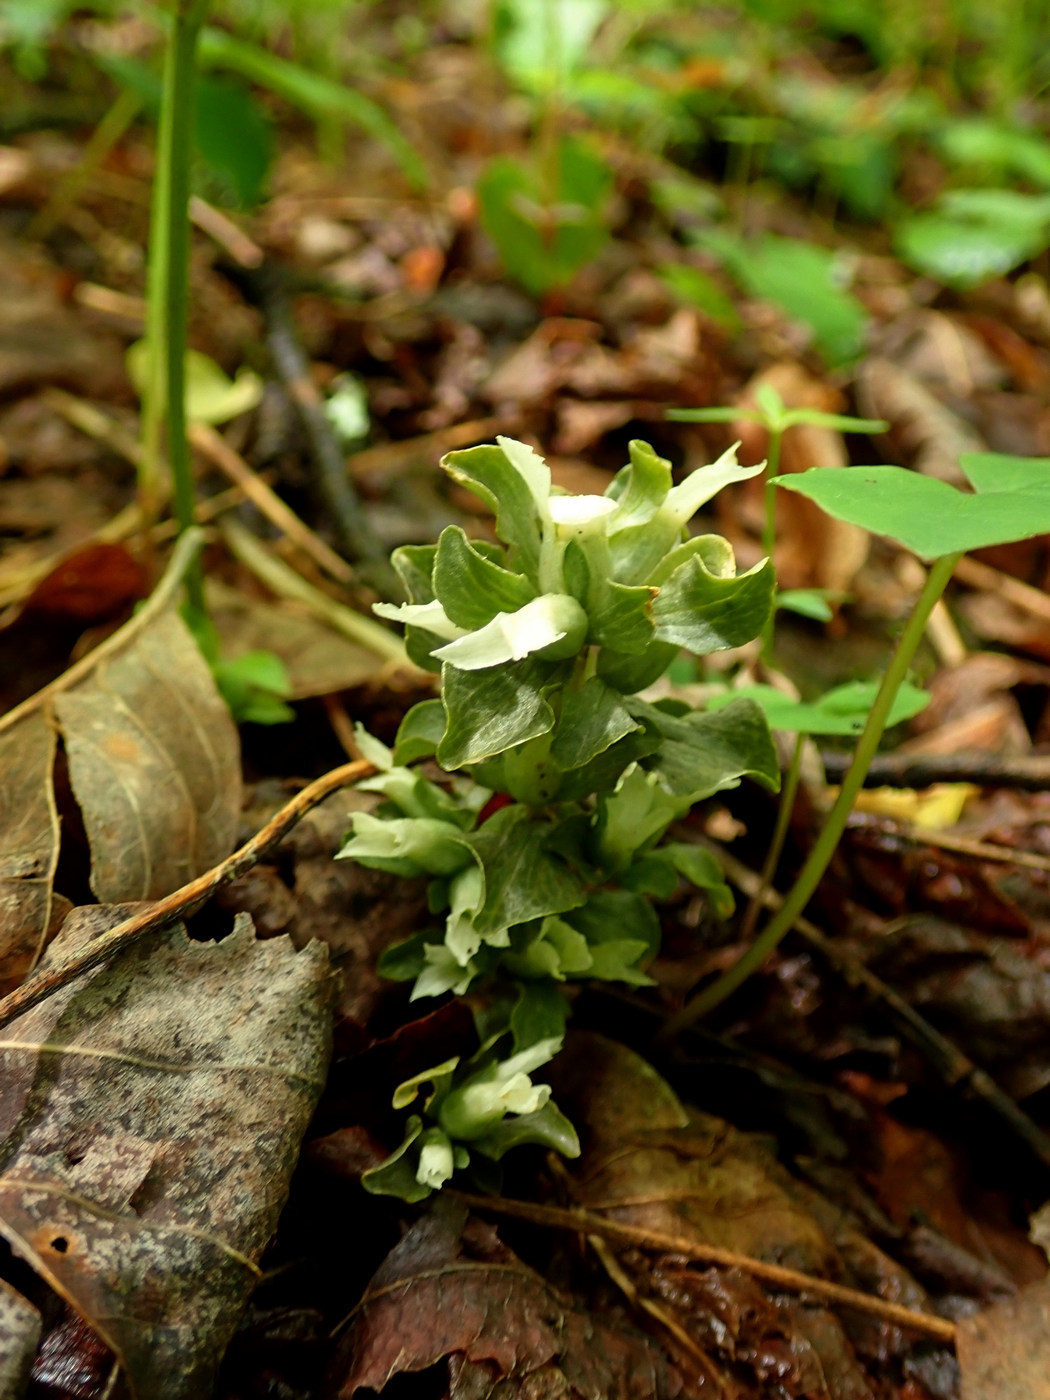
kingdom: Plantae
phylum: Tracheophyta
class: Magnoliopsida
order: Gentianales
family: Gentianaceae
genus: Obolaria
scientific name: Obolaria virginica
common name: Pennywort
